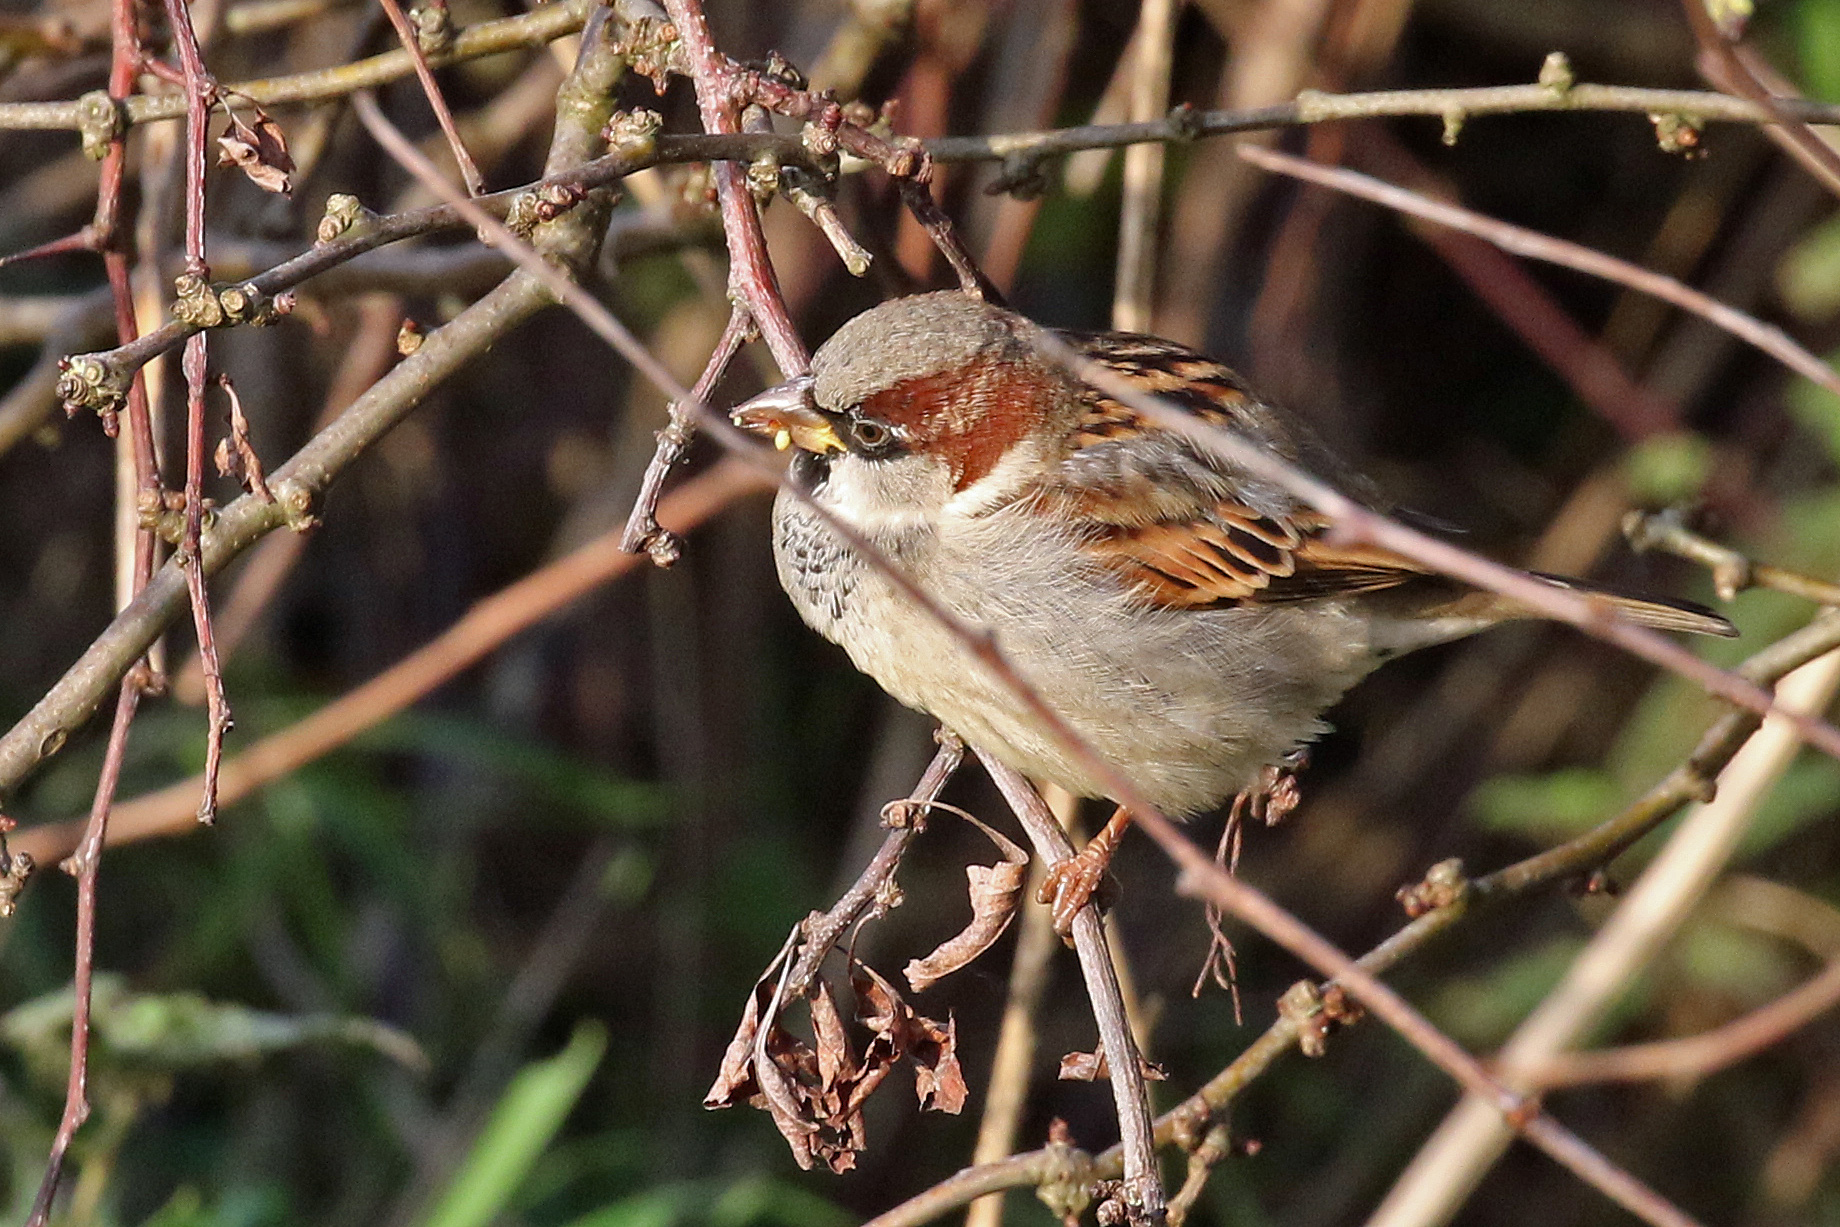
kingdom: Animalia
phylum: Chordata
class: Aves
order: Passeriformes
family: Passeridae
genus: Passer
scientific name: Passer domesticus
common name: House sparrow
